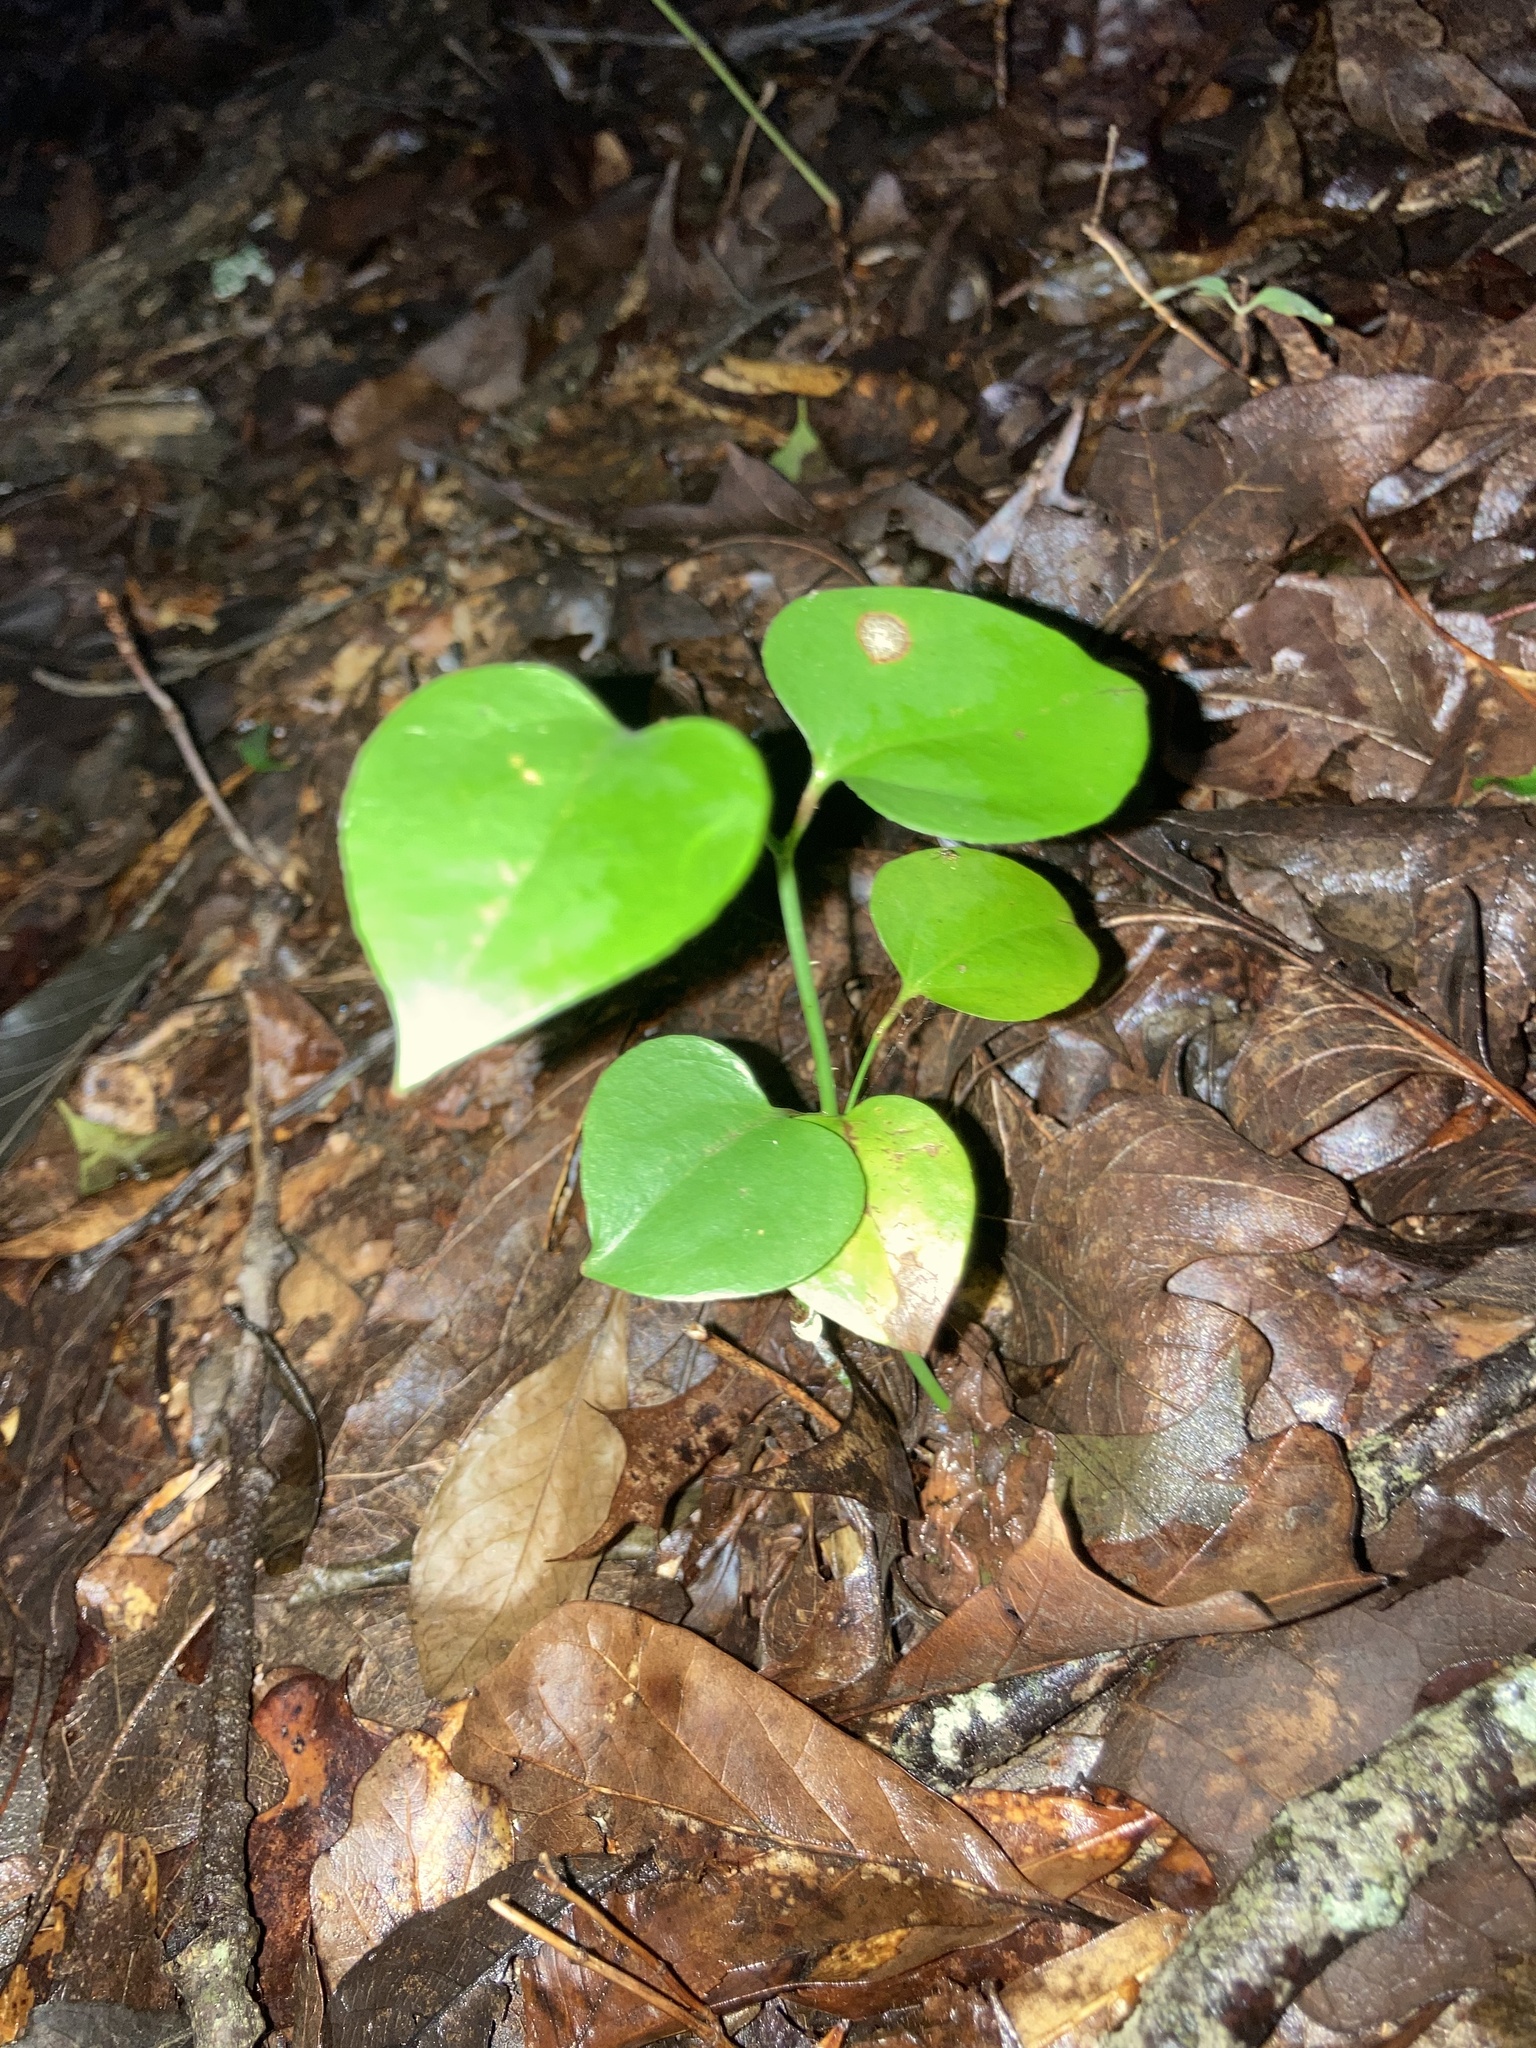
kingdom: Plantae
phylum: Tracheophyta
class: Liliopsida
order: Liliales
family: Smilacaceae
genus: Smilax
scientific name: Smilax rotundifolia
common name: Bullbriar
